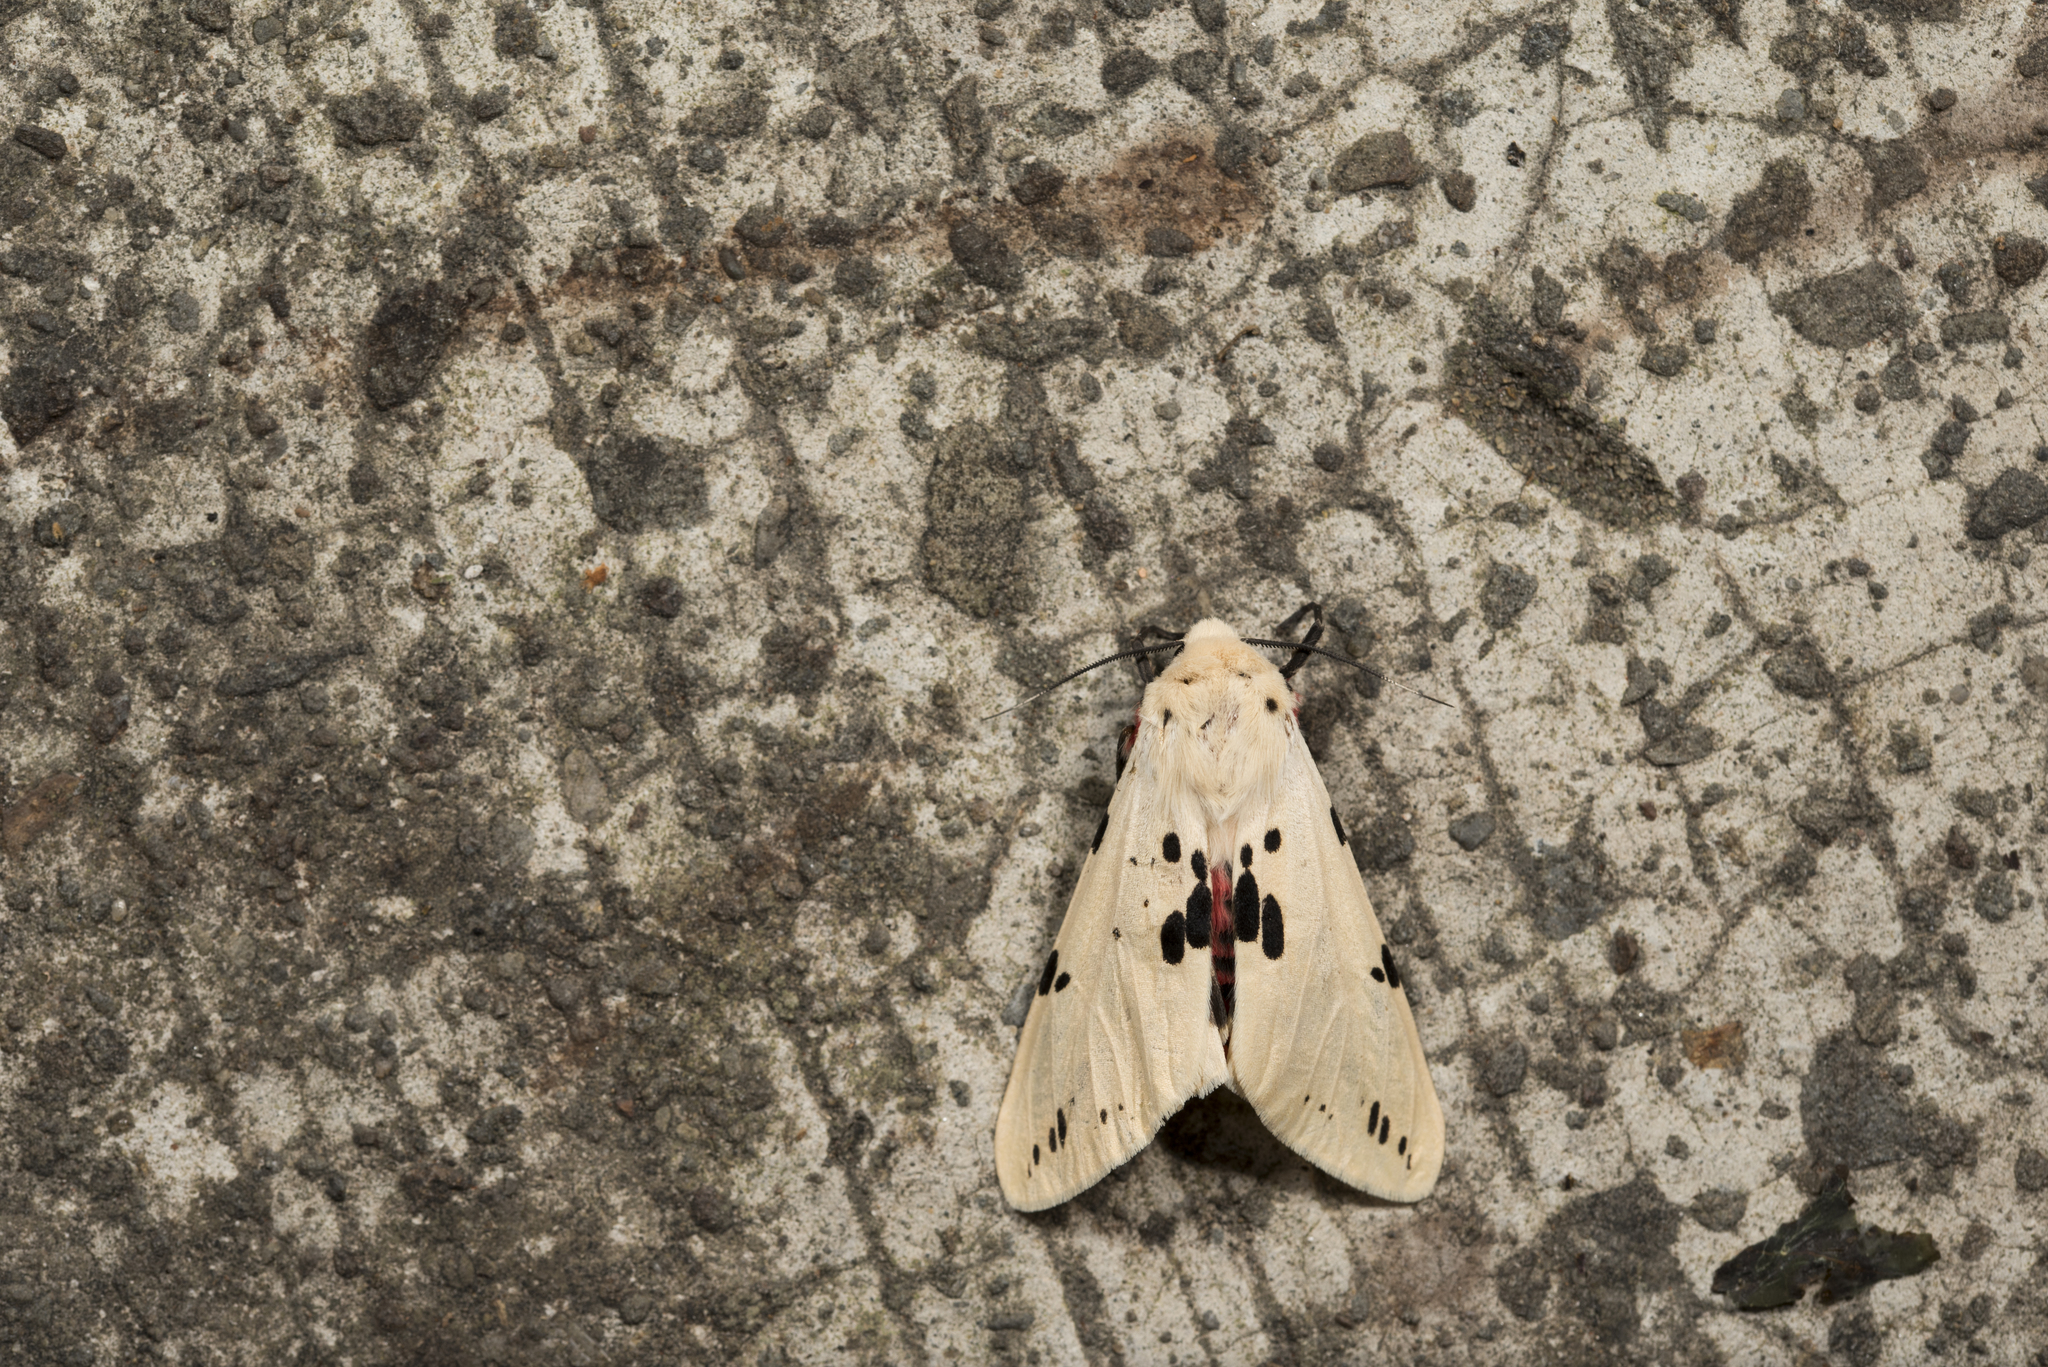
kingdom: Animalia
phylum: Arthropoda
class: Insecta
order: Lepidoptera
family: Erebidae
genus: Spilarctia
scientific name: Spilarctia alba
